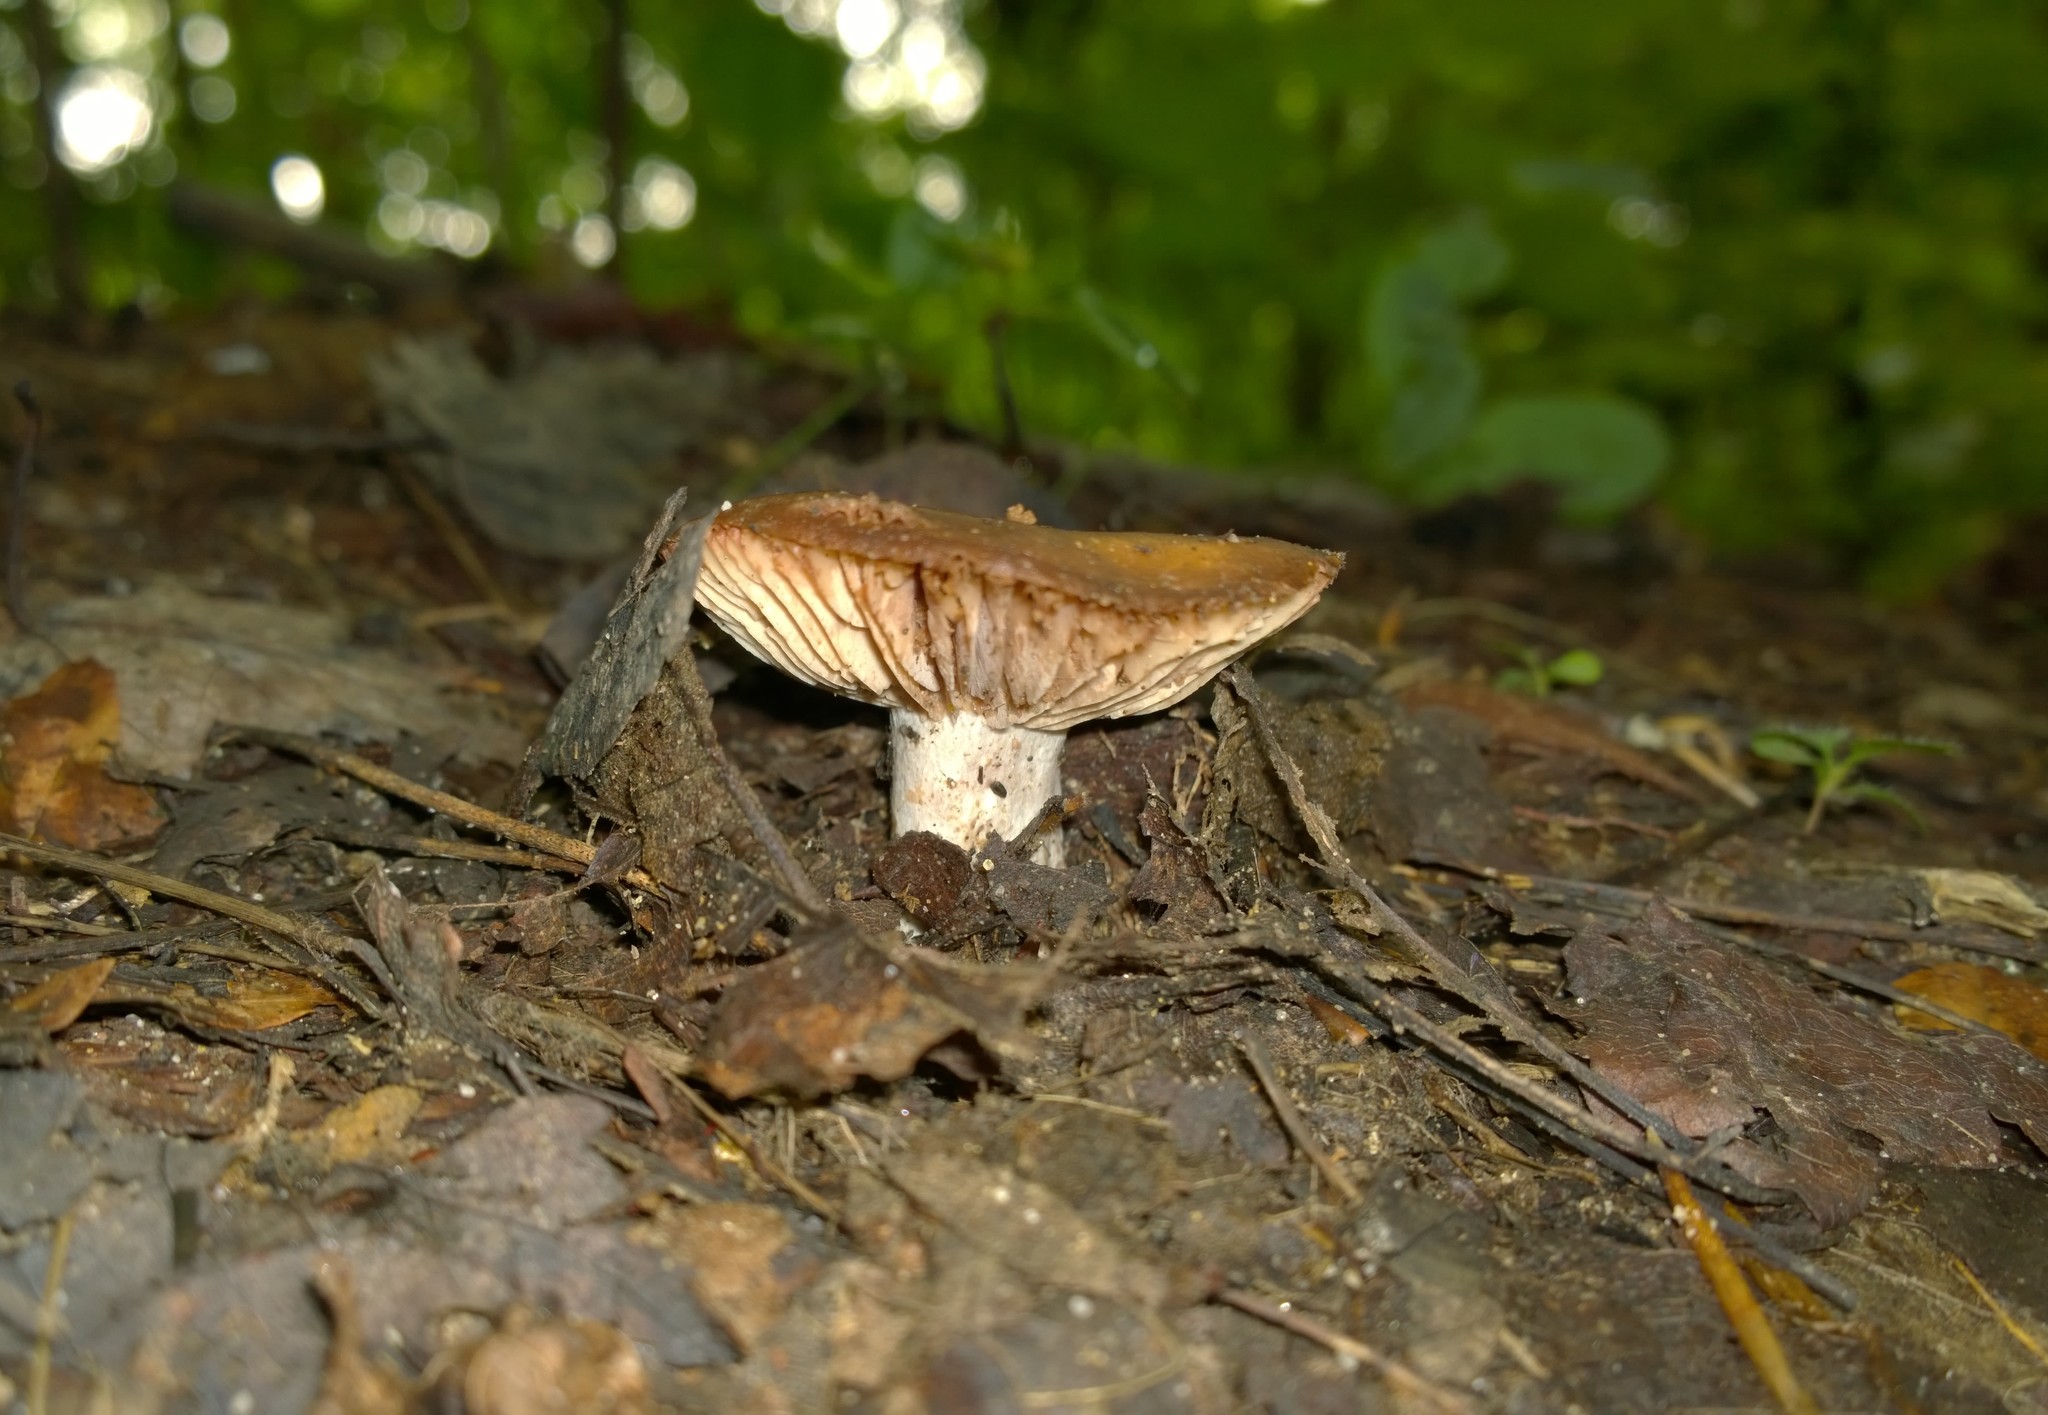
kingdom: Fungi
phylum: Basidiomycota
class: Agaricomycetes
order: Russulales
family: Russulaceae
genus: Russula
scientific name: Russula adusta
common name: Winecork brittlegill
